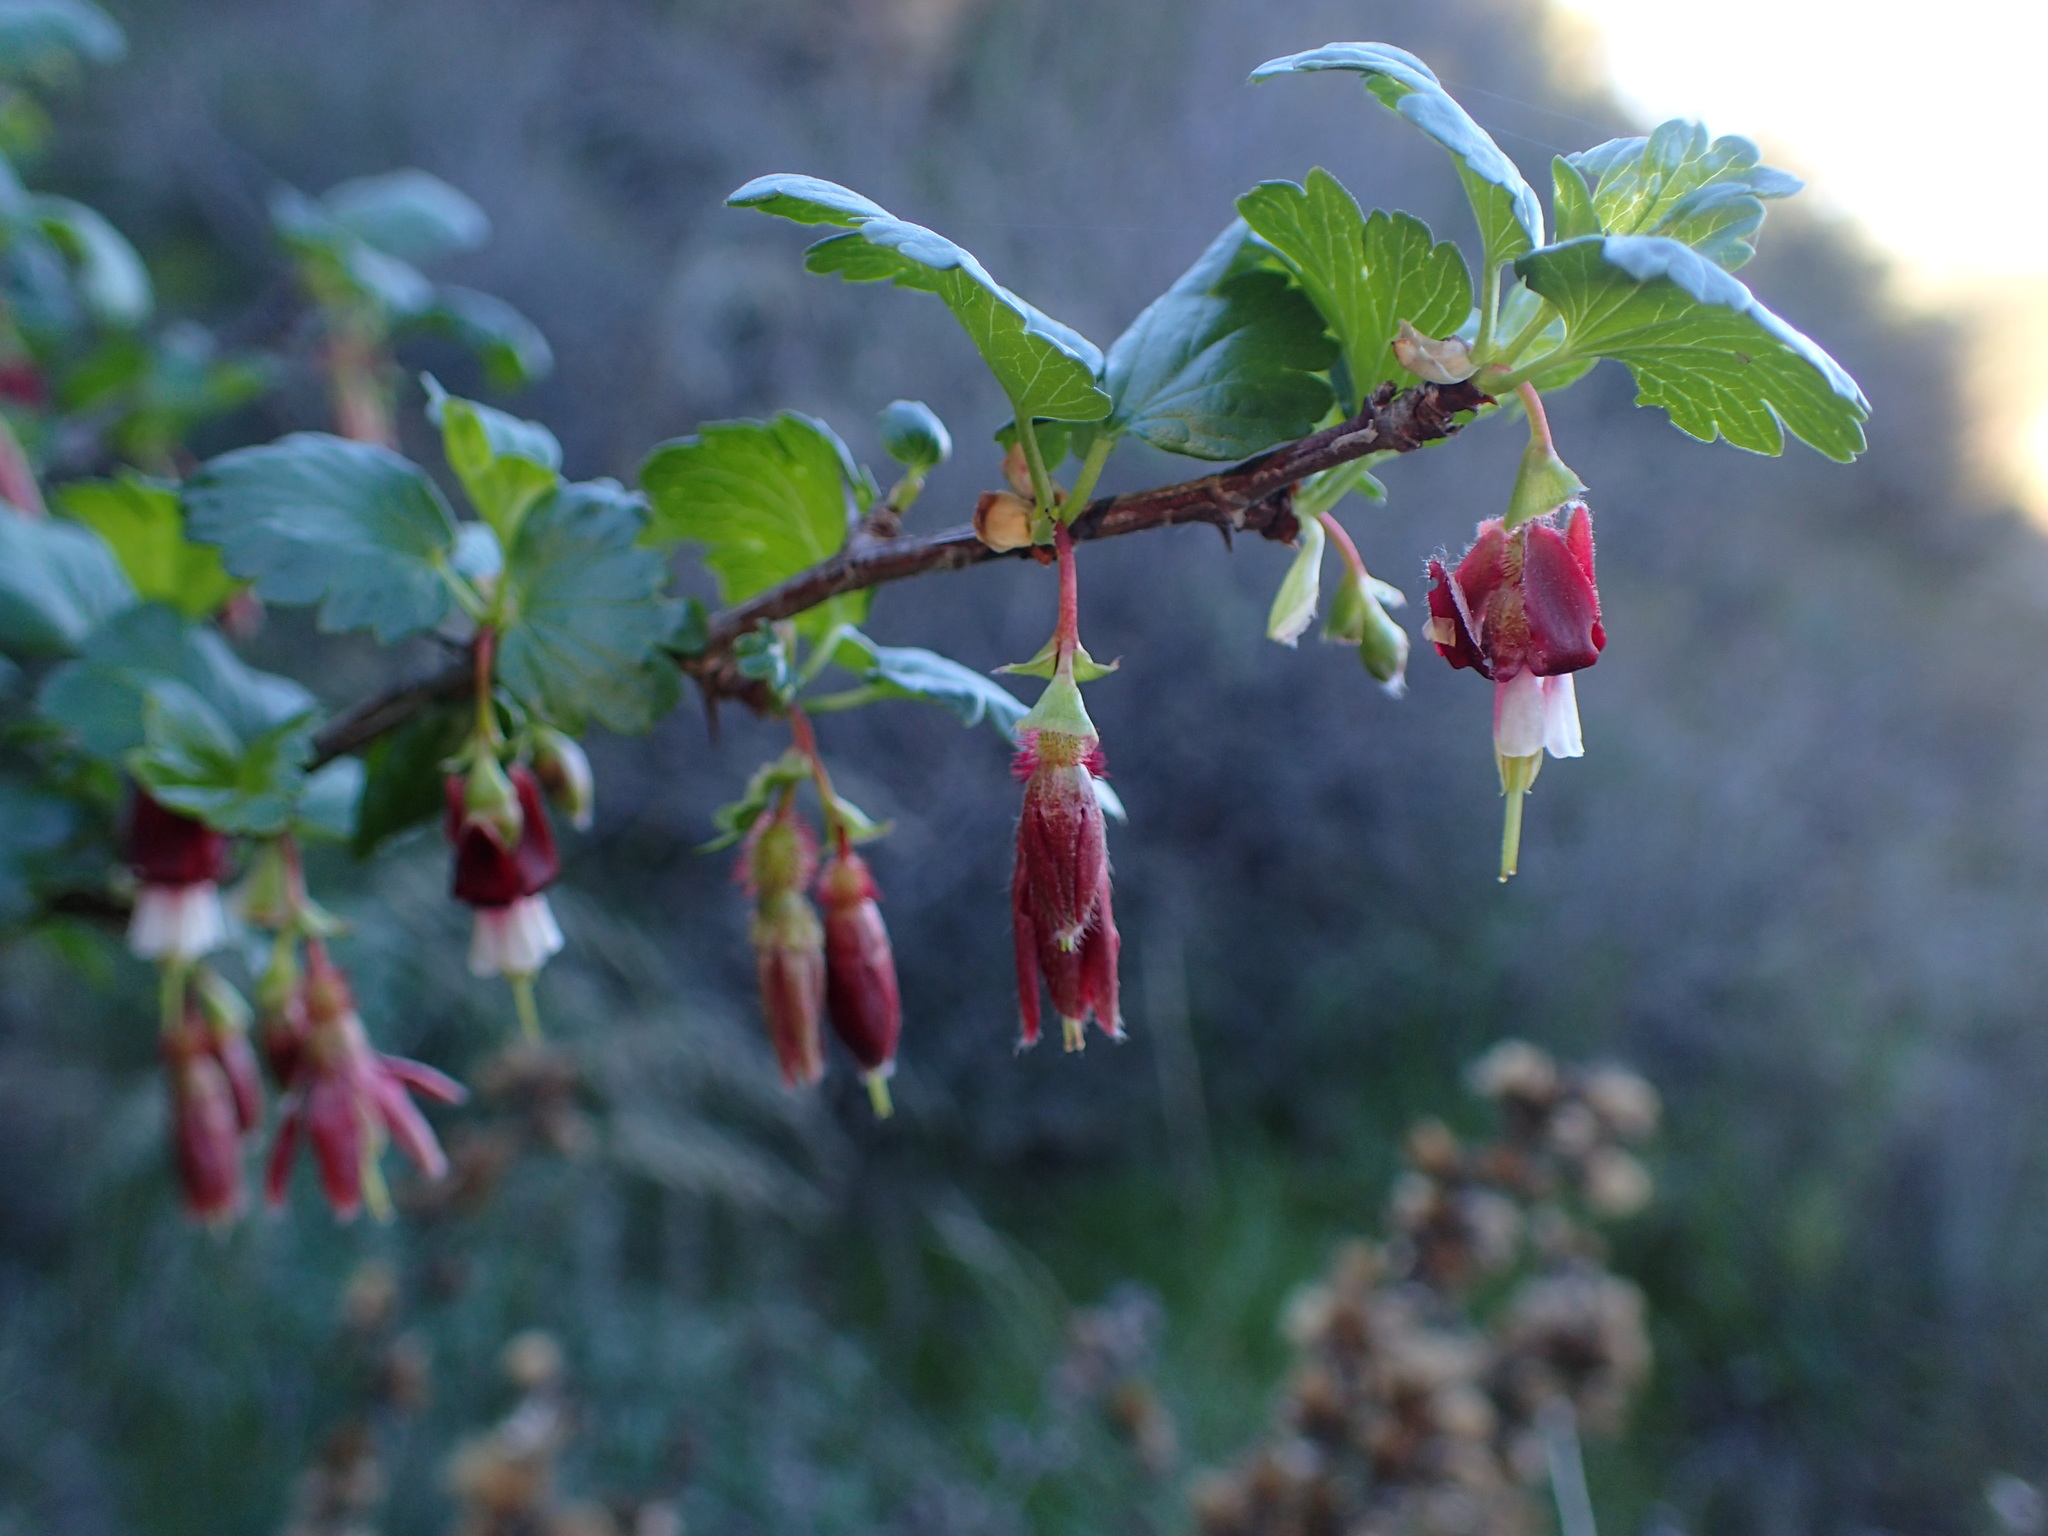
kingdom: Plantae
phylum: Tracheophyta
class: Magnoliopsida
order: Saxifragales
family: Grossulariaceae
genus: Ribes
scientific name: Ribes californicum
